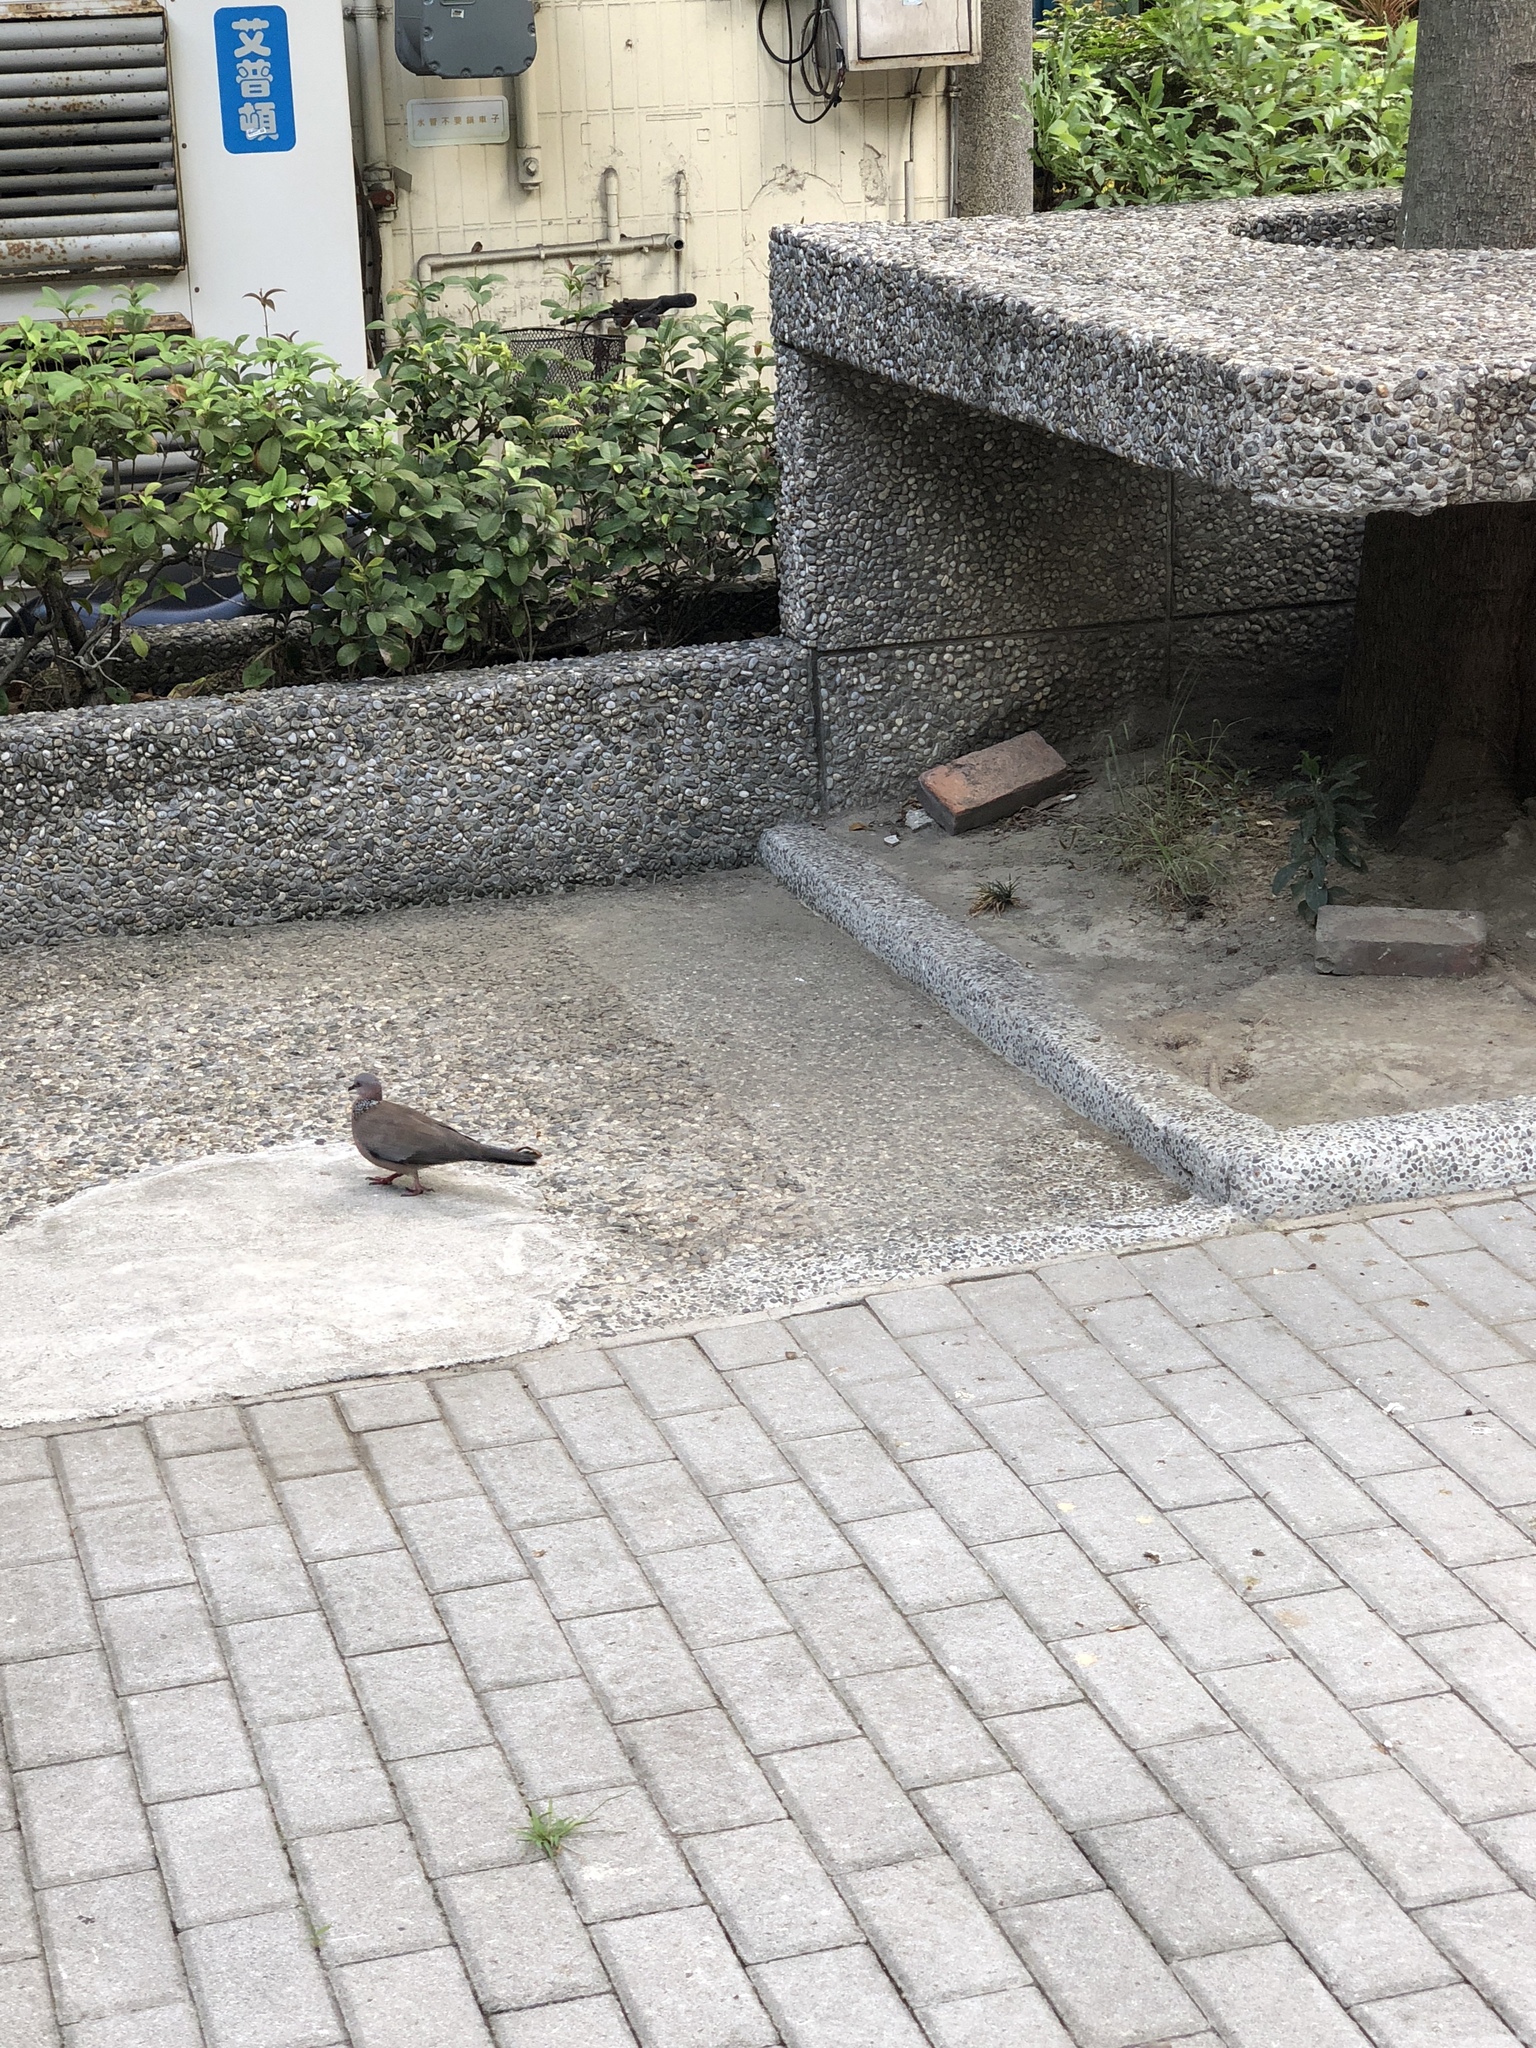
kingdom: Animalia
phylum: Chordata
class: Aves
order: Columbiformes
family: Columbidae
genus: Spilopelia
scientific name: Spilopelia chinensis
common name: Spotted dove
